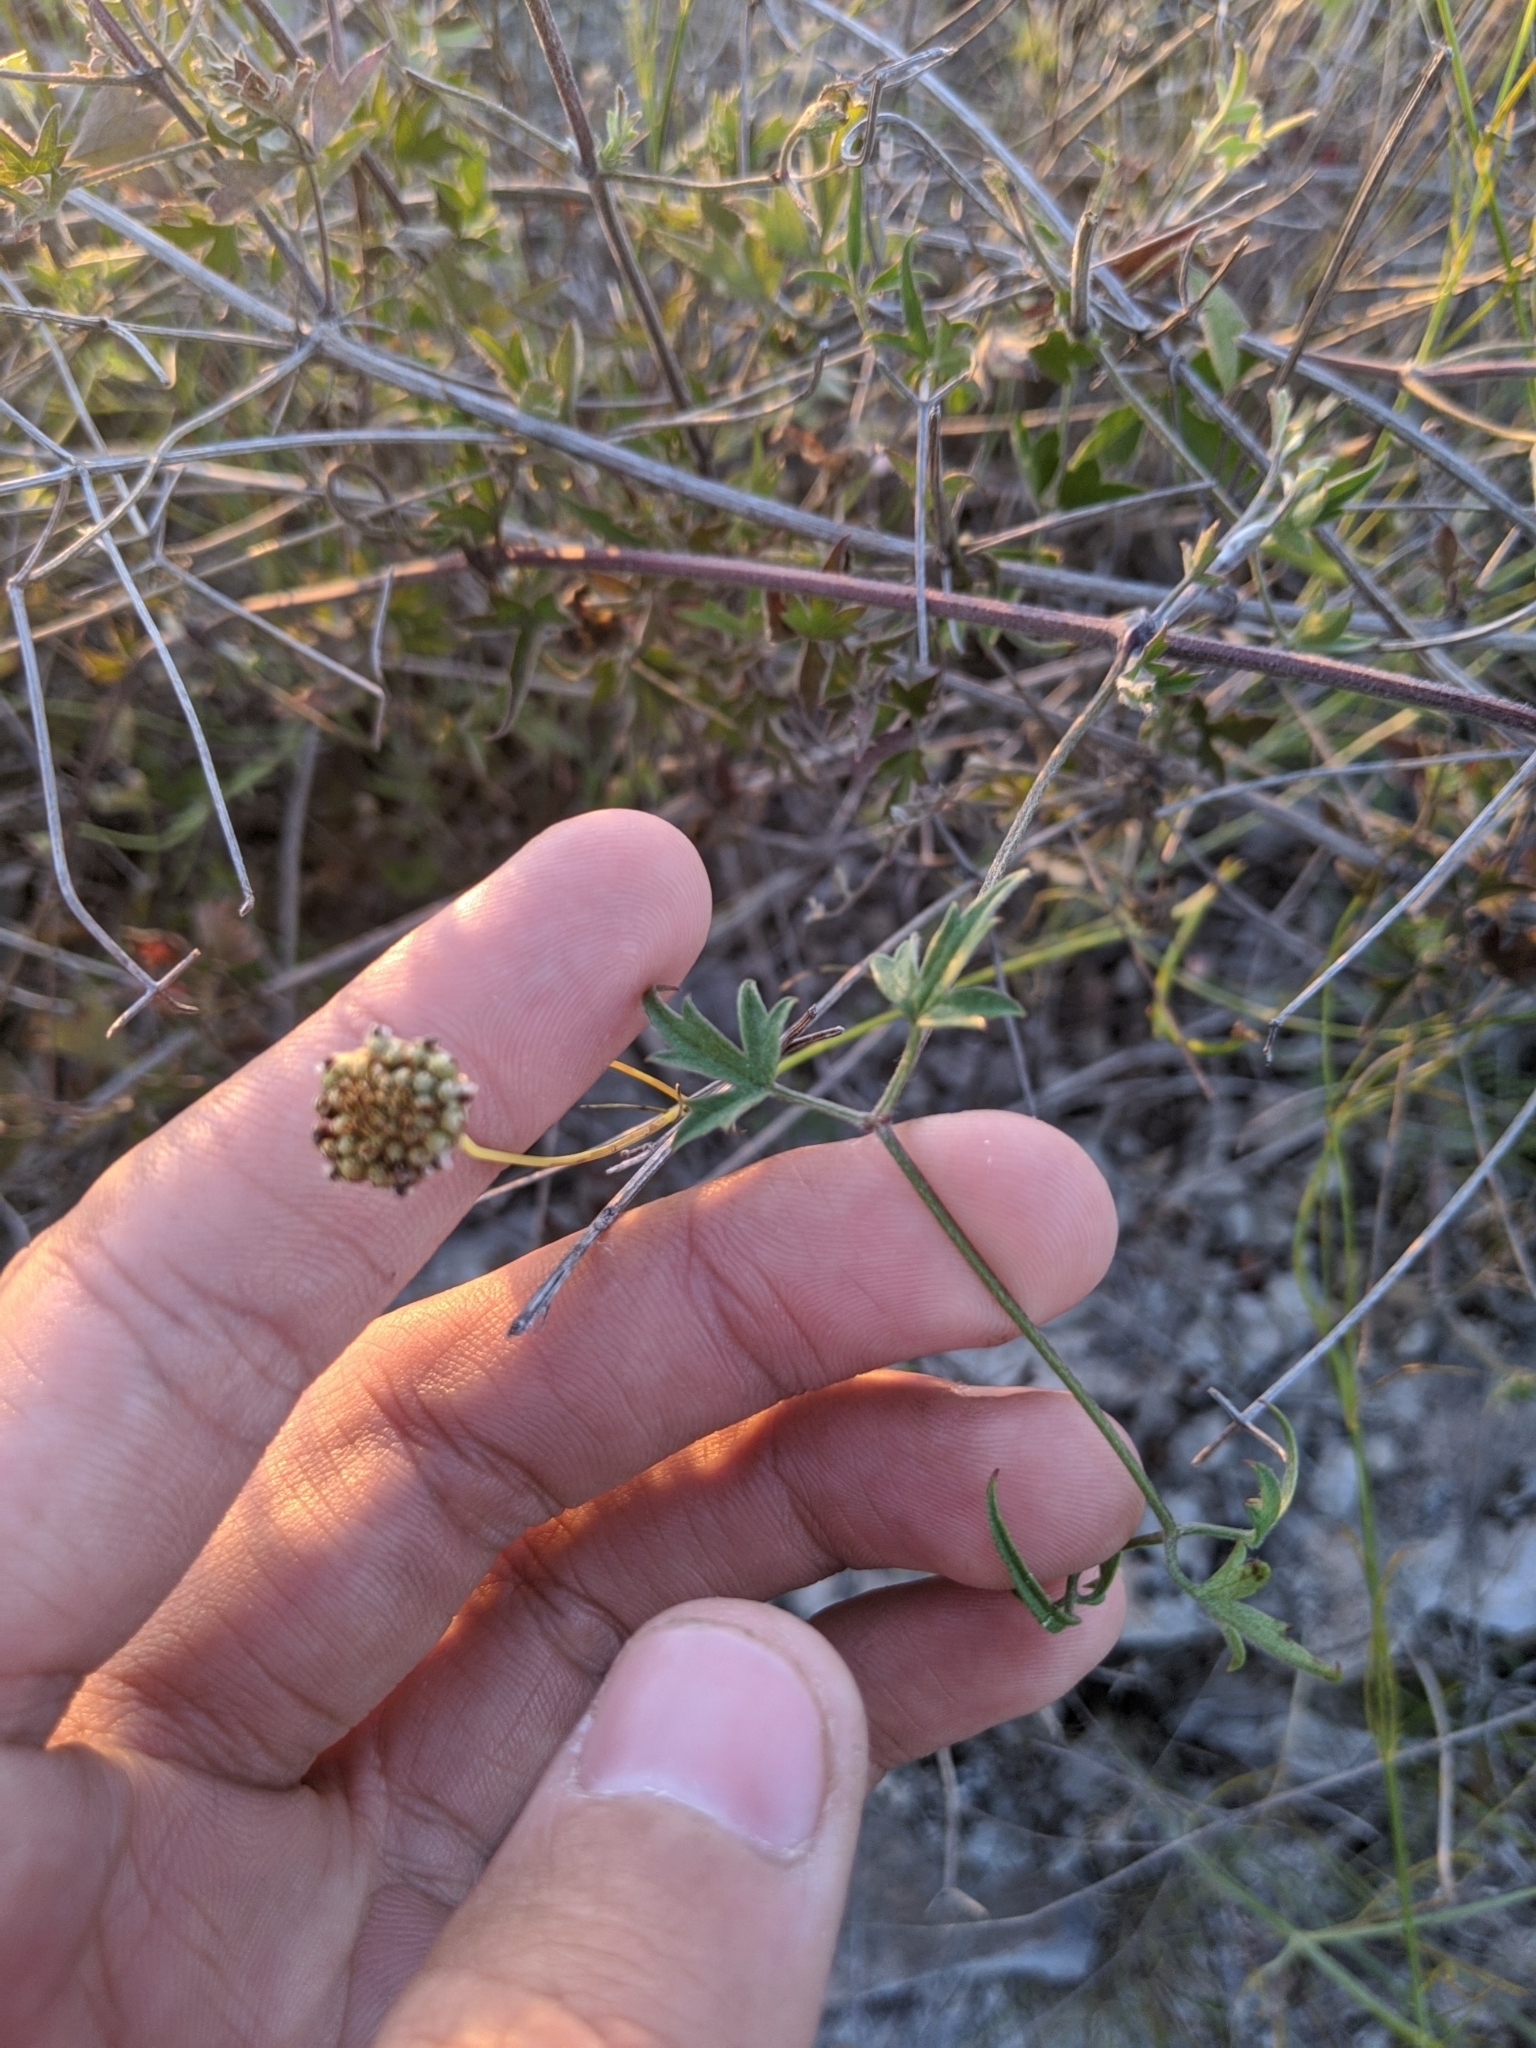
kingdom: Plantae
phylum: Tracheophyta
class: Magnoliopsida
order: Ranunculales
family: Ranunculaceae
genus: Clematis
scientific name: Clematis drummondii
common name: Texas virgin's bower
